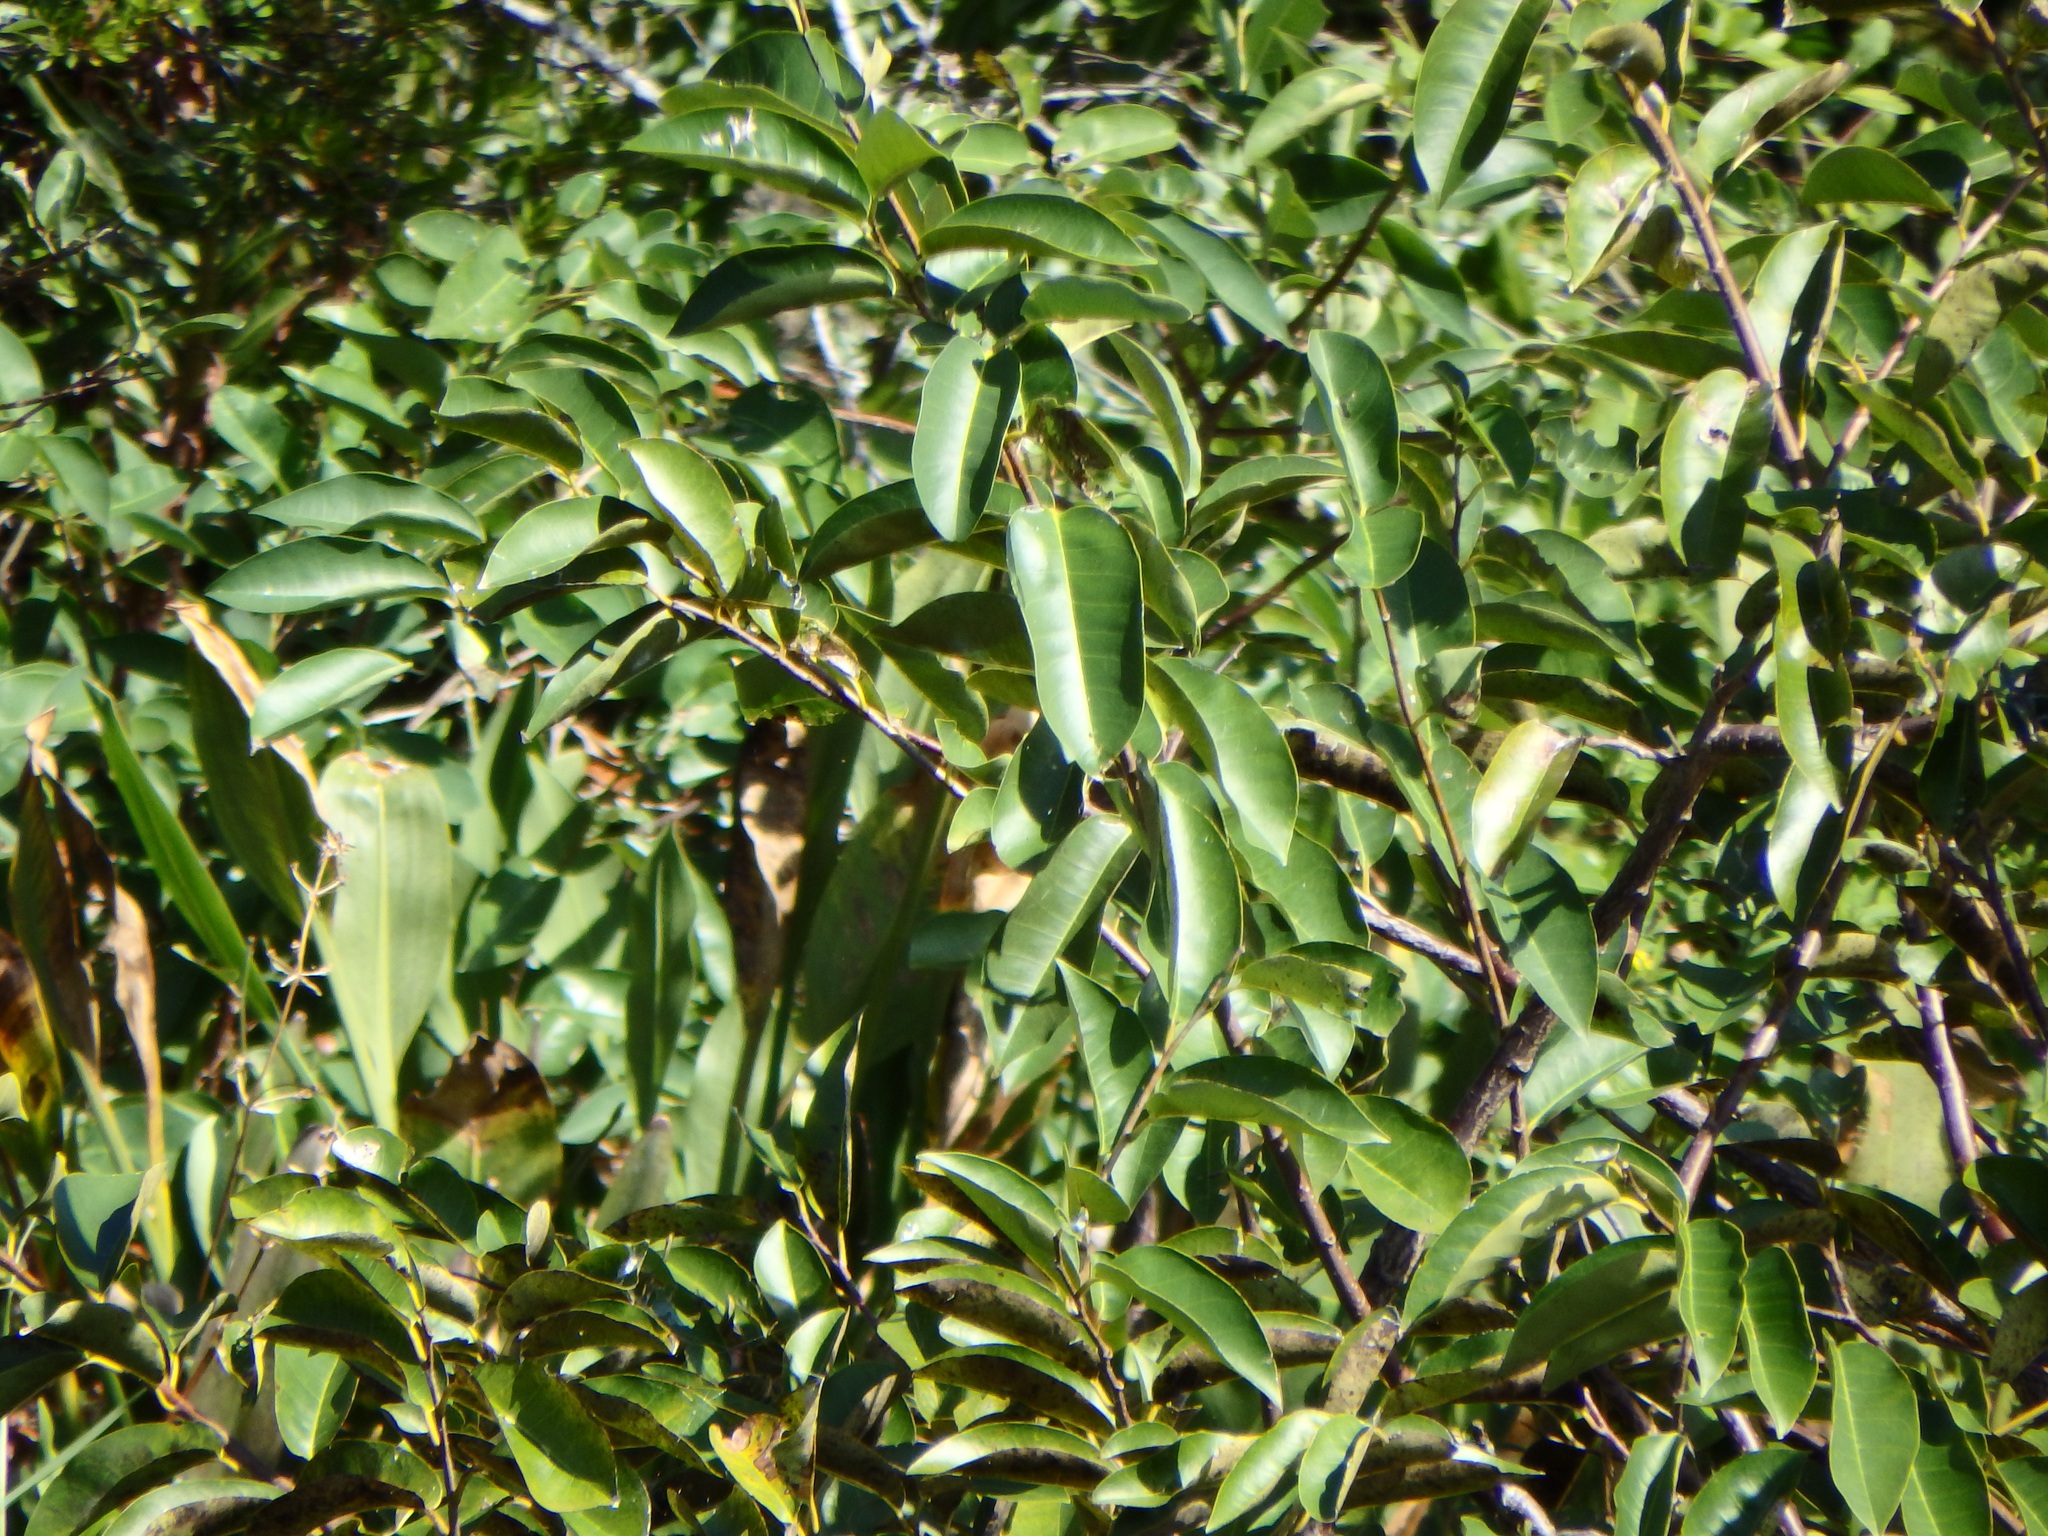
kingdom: Plantae
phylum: Tracheophyta
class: Magnoliopsida
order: Magnoliales
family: Annonaceae
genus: Annona
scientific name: Annona glabra
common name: Monkey apple
